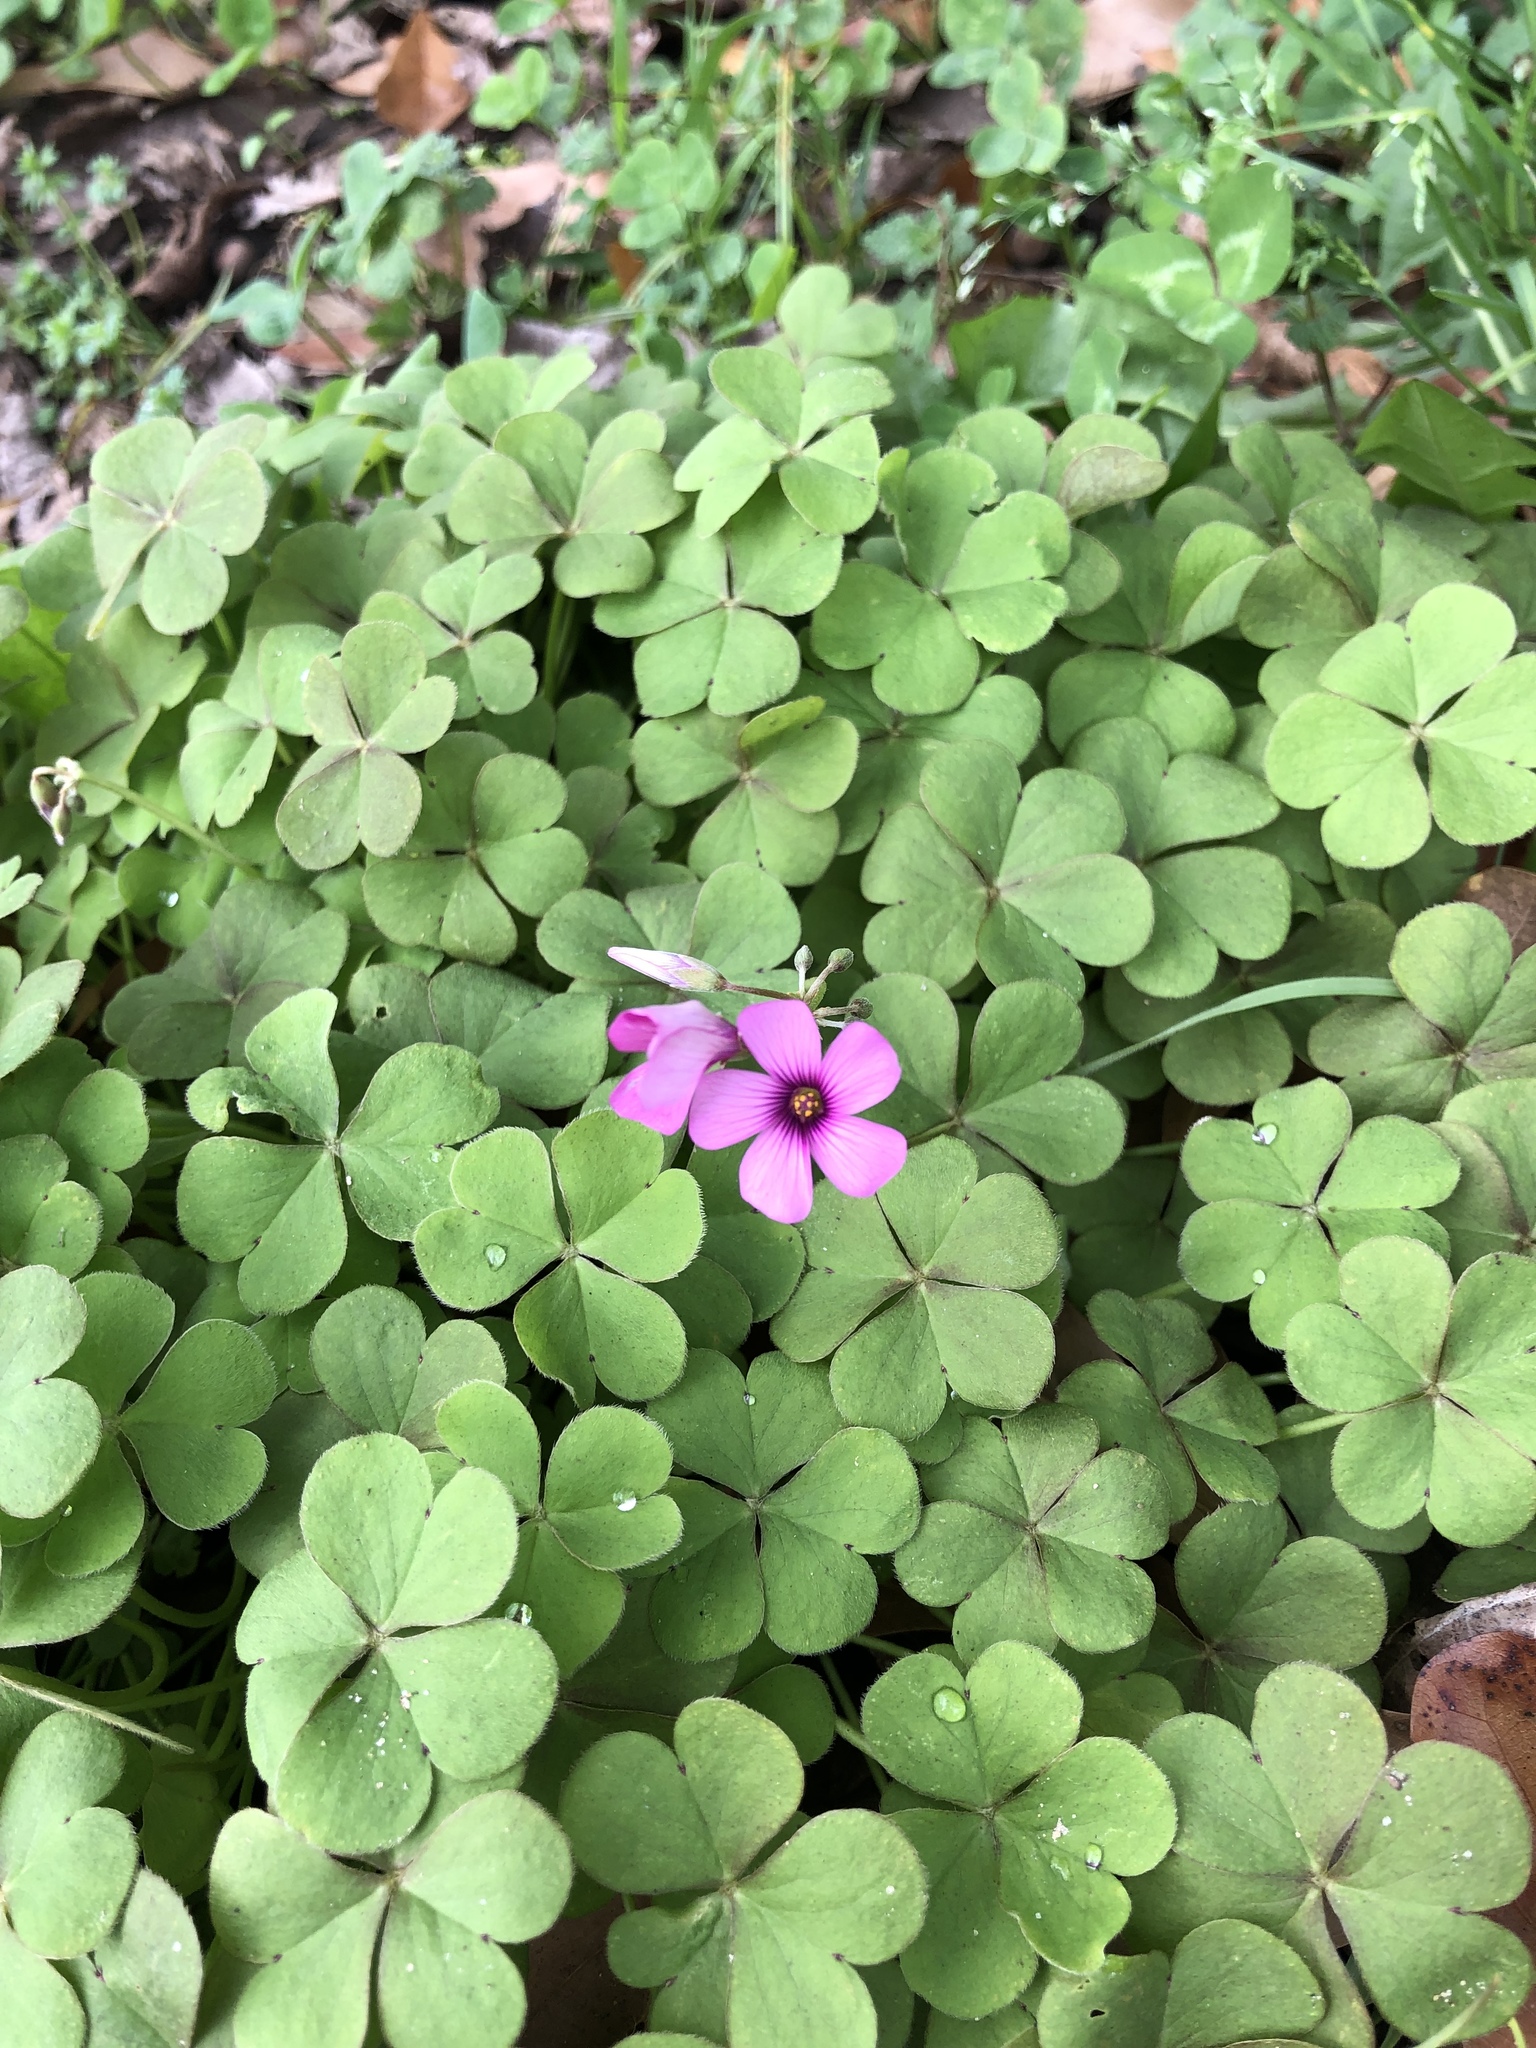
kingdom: Plantae
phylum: Tracheophyta
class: Magnoliopsida
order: Oxalidales
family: Oxalidaceae
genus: Oxalis
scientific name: Oxalis articulata
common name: Pink-sorrel
